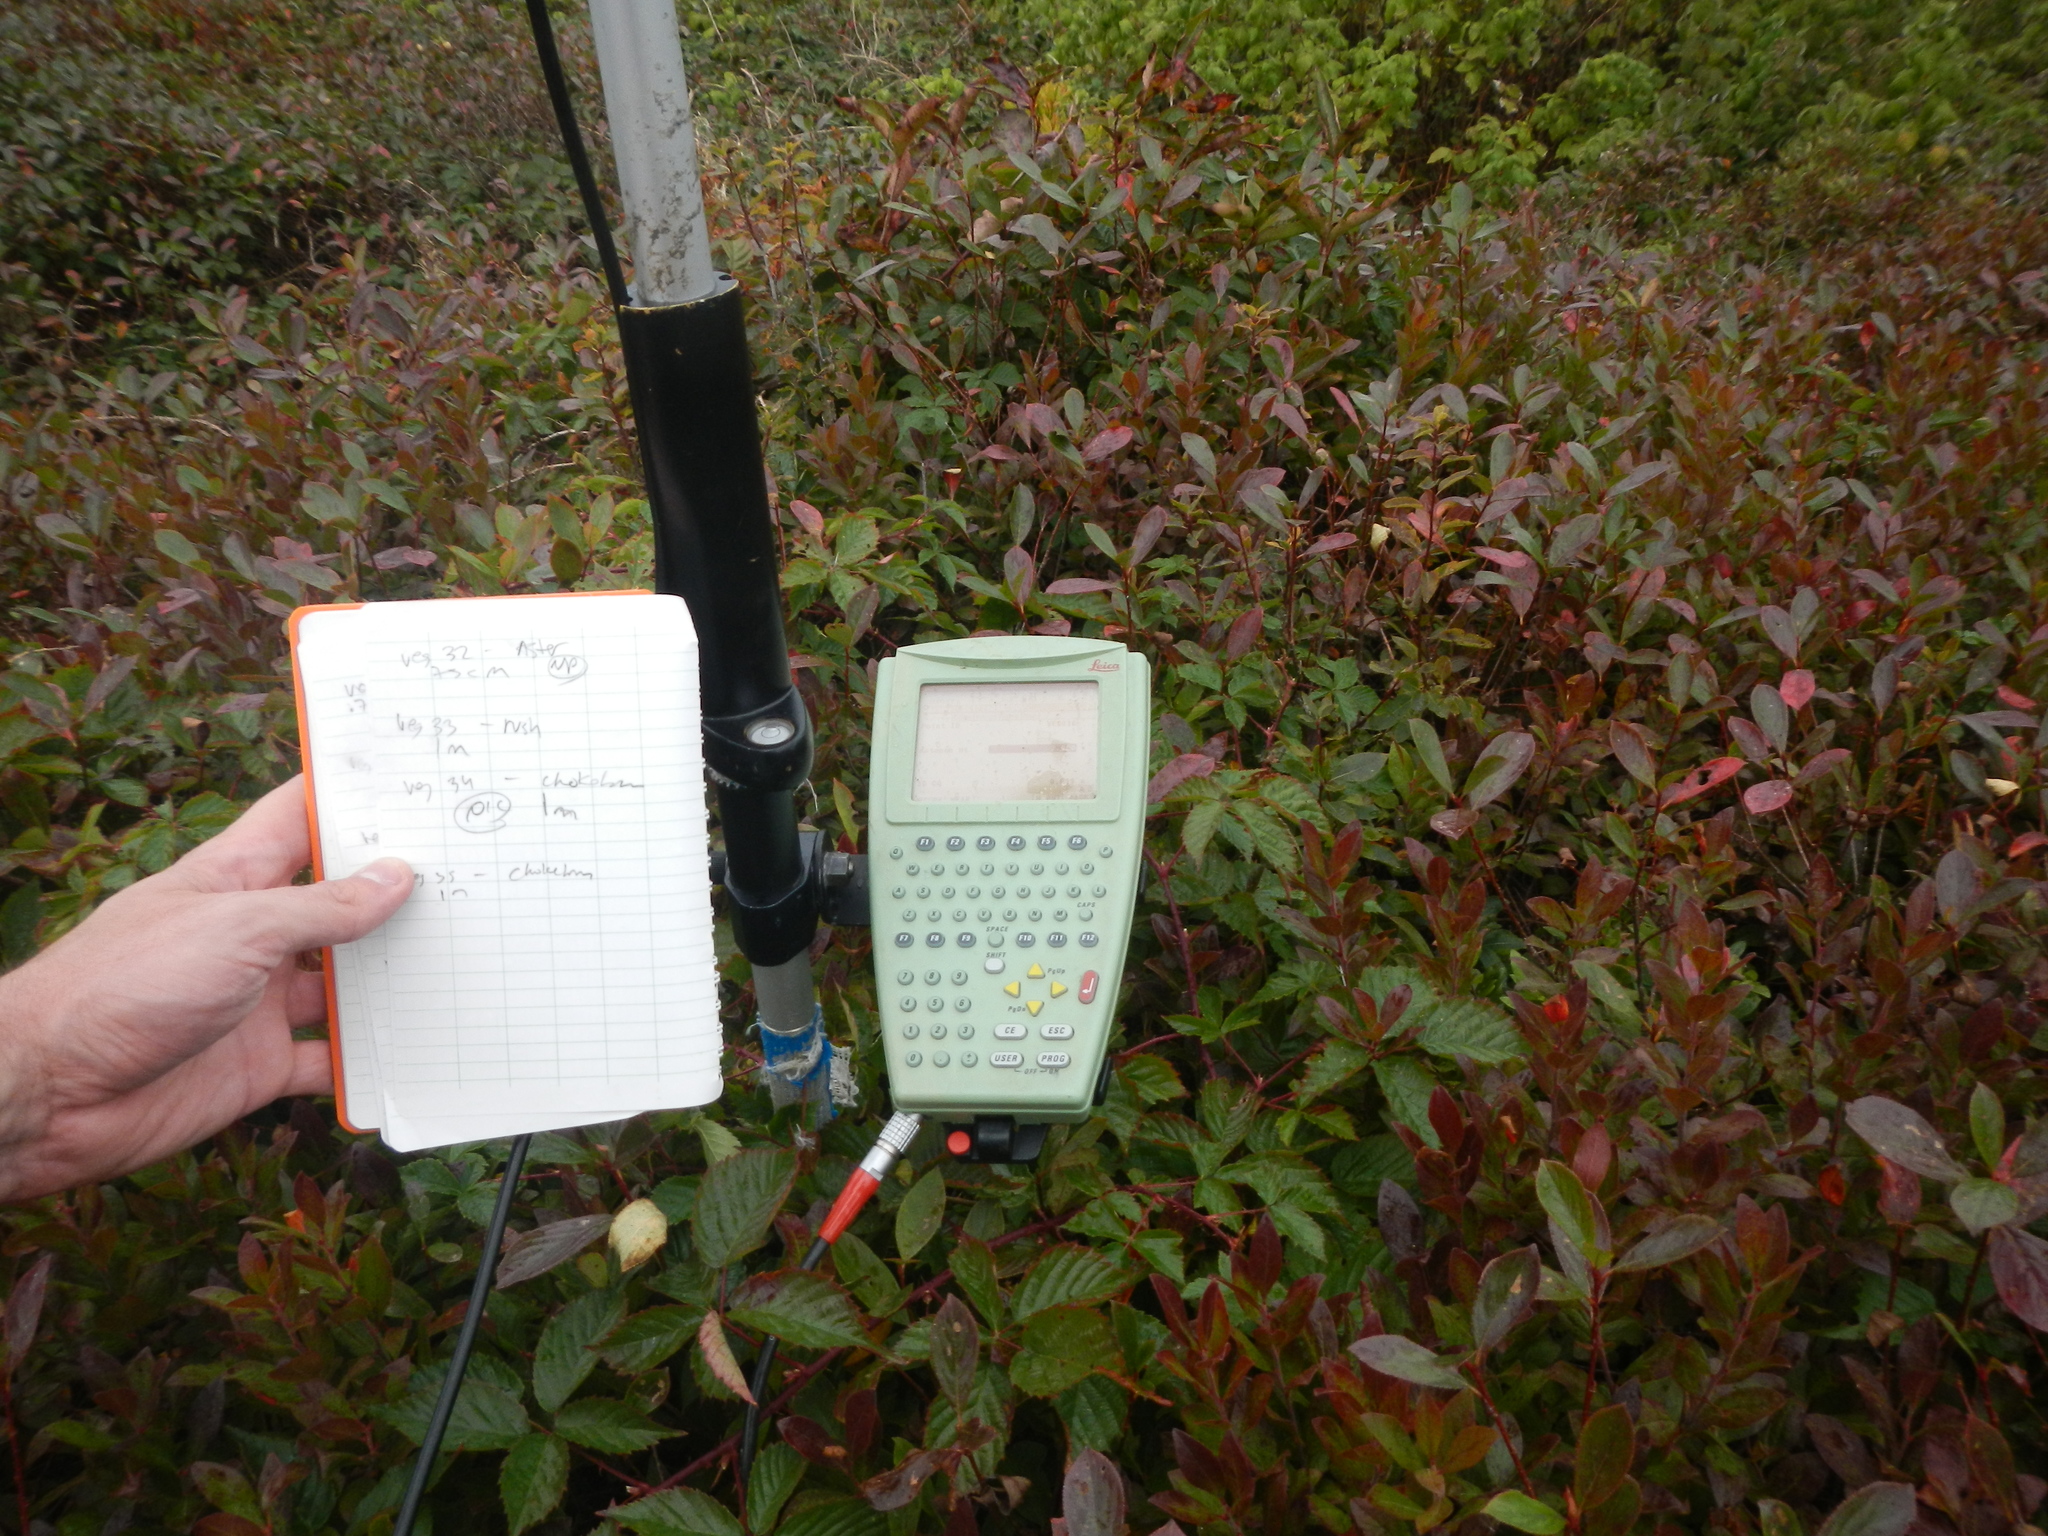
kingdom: Plantae
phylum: Tracheophyta
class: Magnoliopsida
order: Rosales
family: Rosaceae
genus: Aronia
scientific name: Aronia melanocarpa
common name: Black chokeberry
